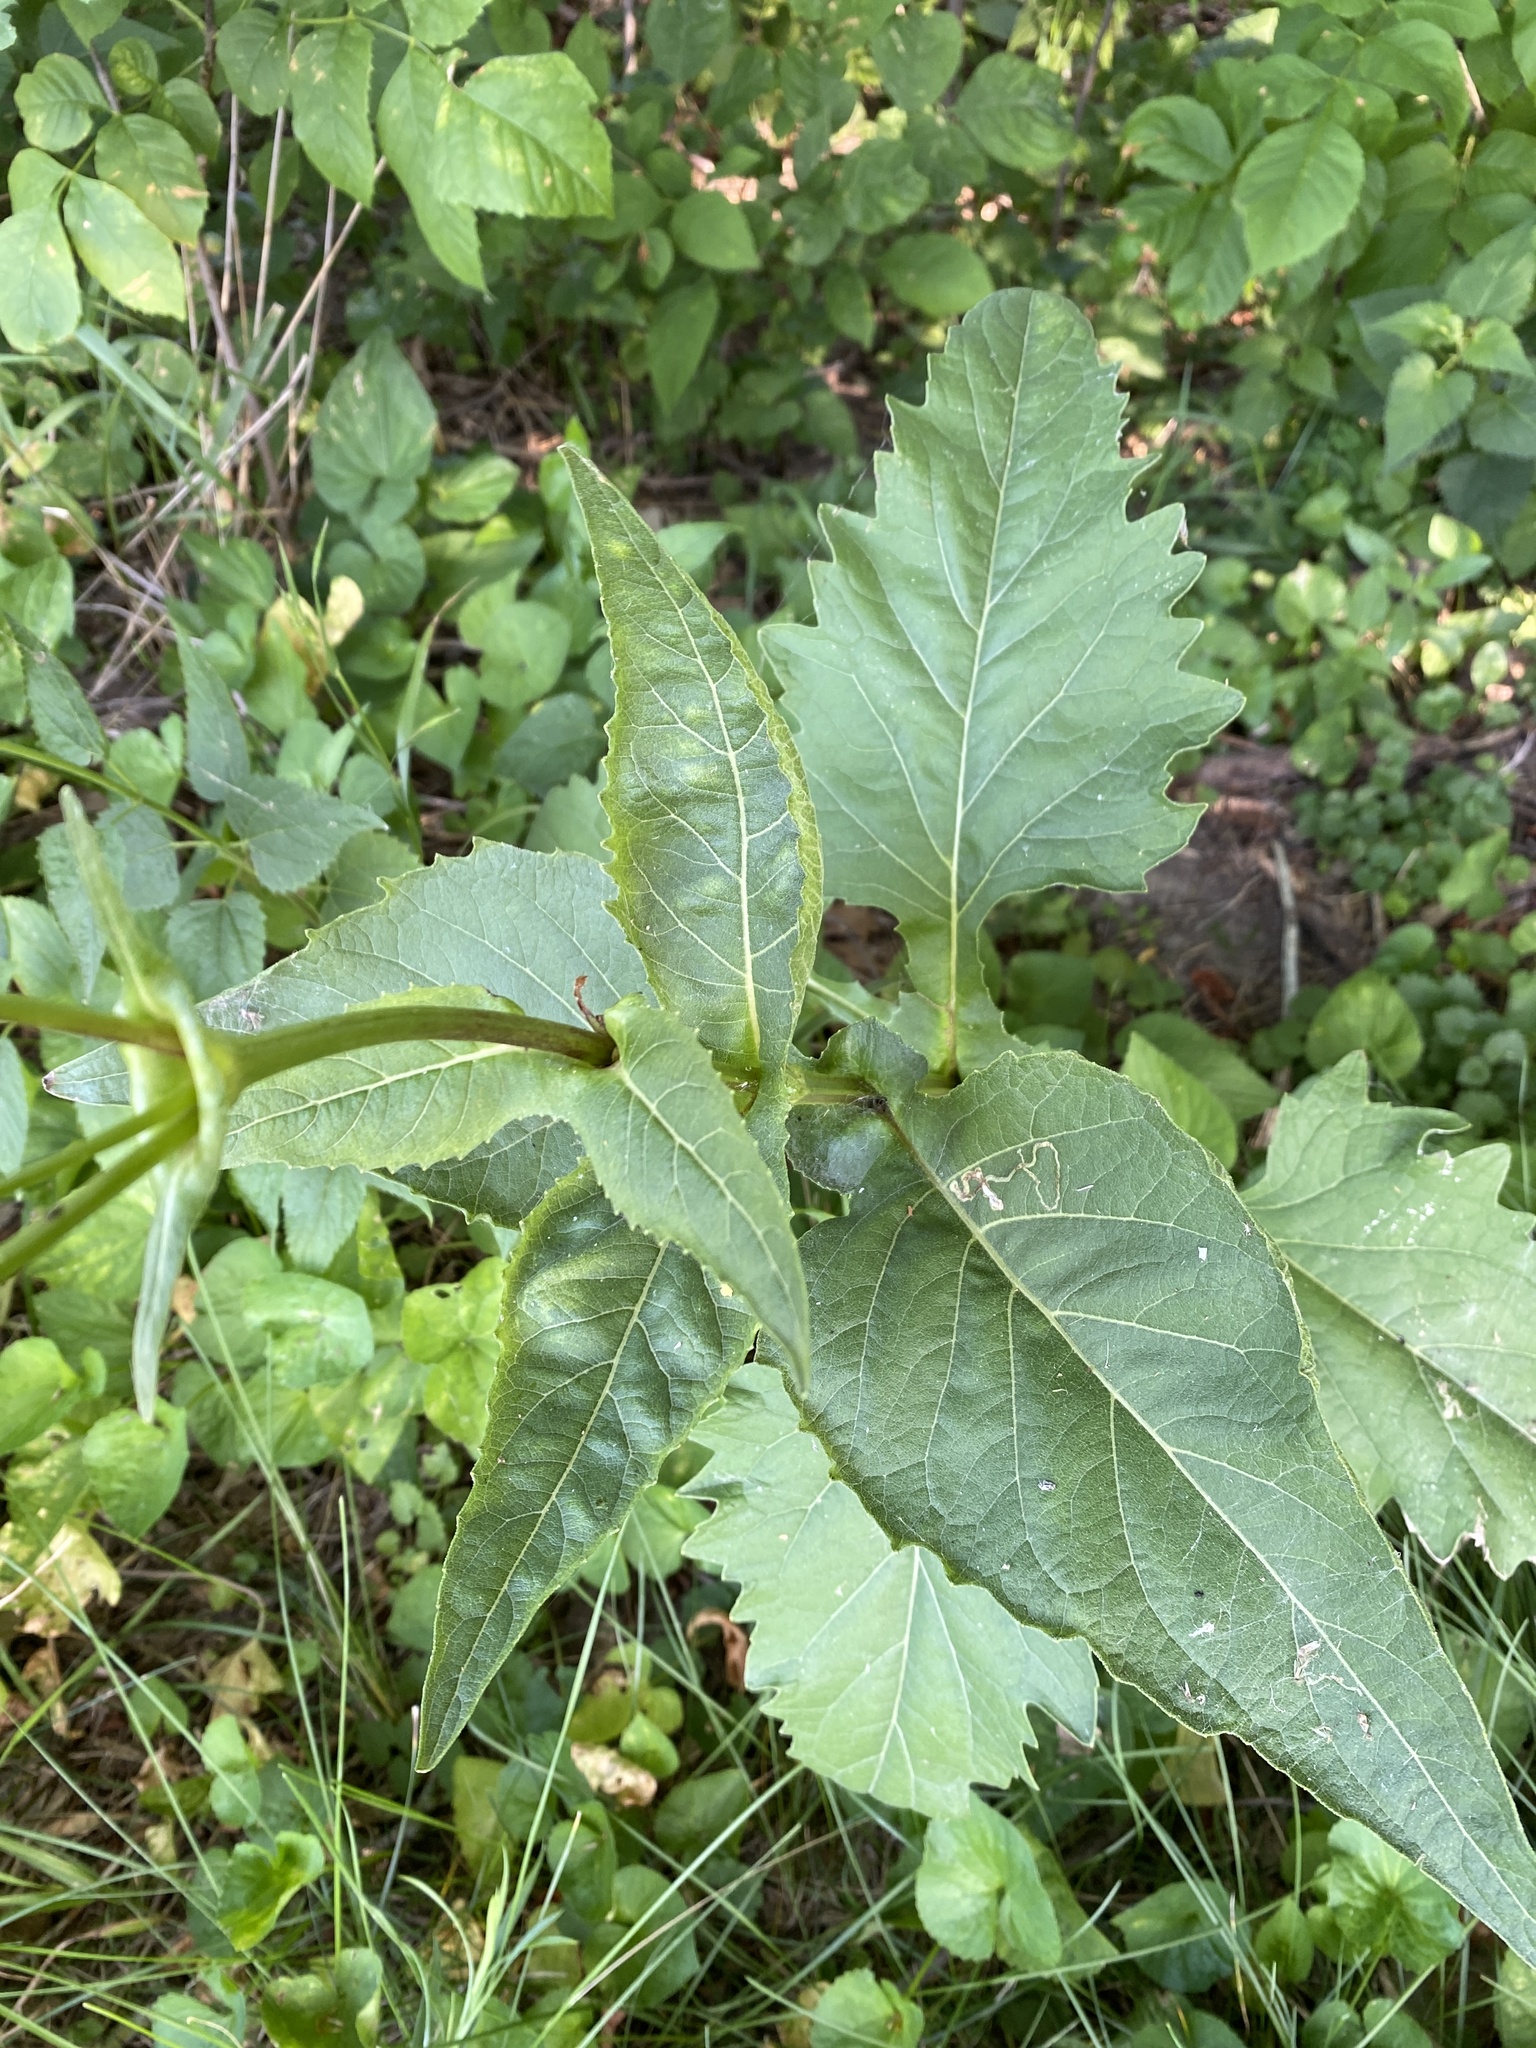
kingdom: Plantae
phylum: Tracheophyta
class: Magnoliopsida
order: Asterales
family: Asteraceae
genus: Silphium
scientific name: Silphium perfoliatum
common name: Cup-plant
